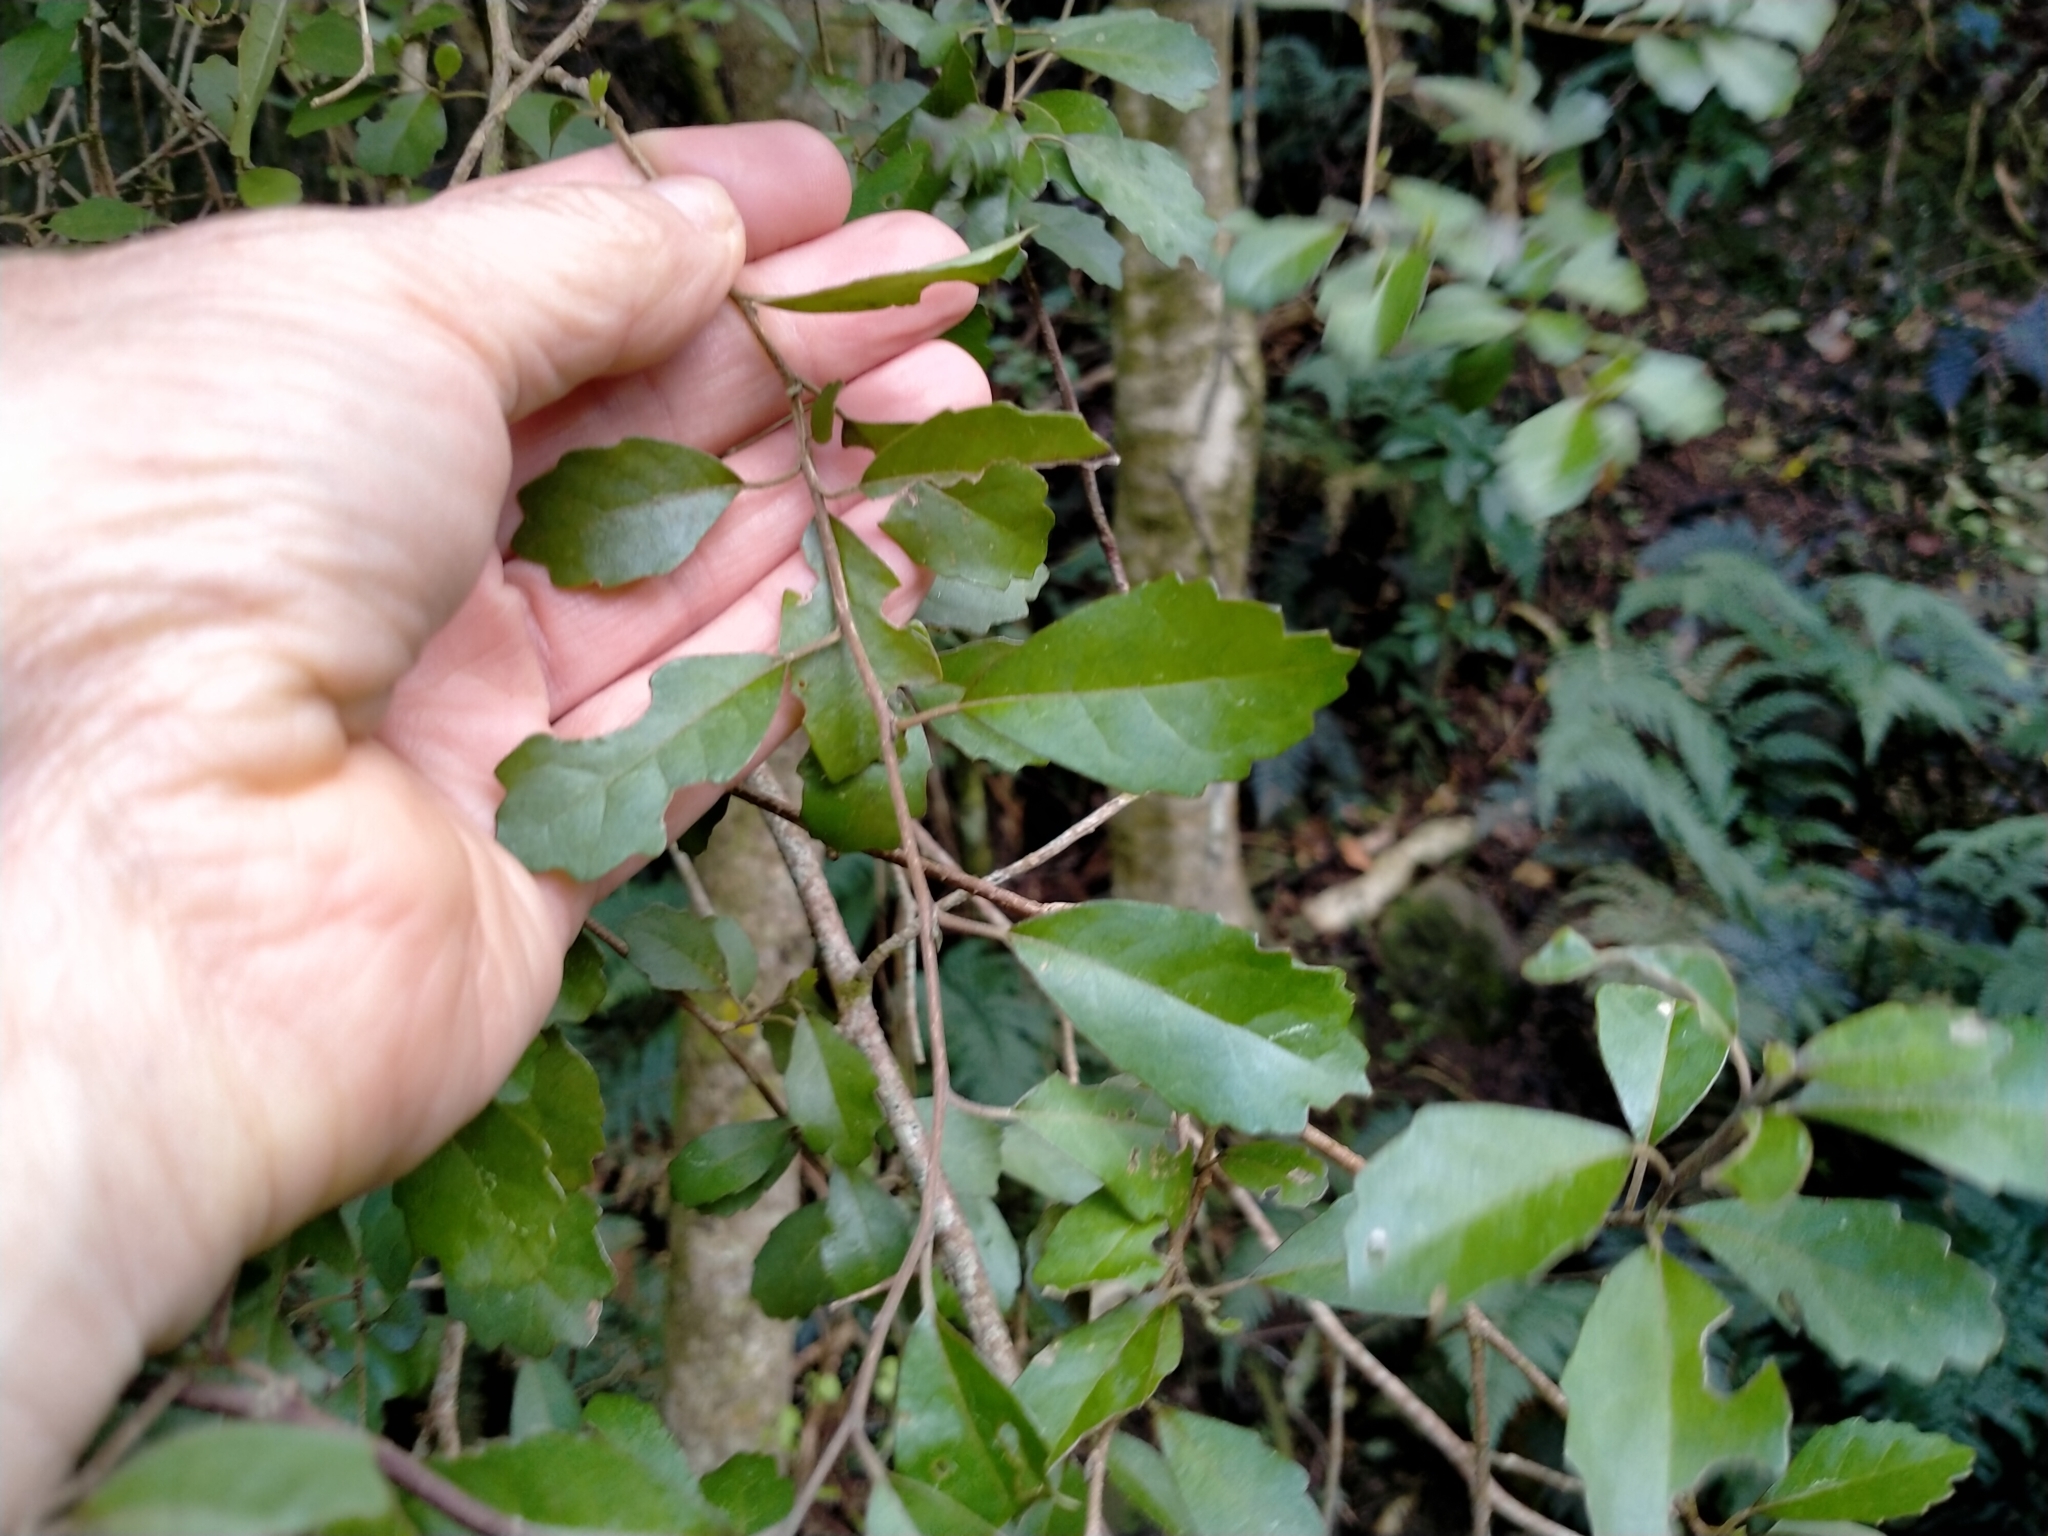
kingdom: Plantae
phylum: Tracheophyta
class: Magnoliopsida
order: Apiales
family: Pennantiaceae
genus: Pennantia
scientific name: Pennantia corymbosa
